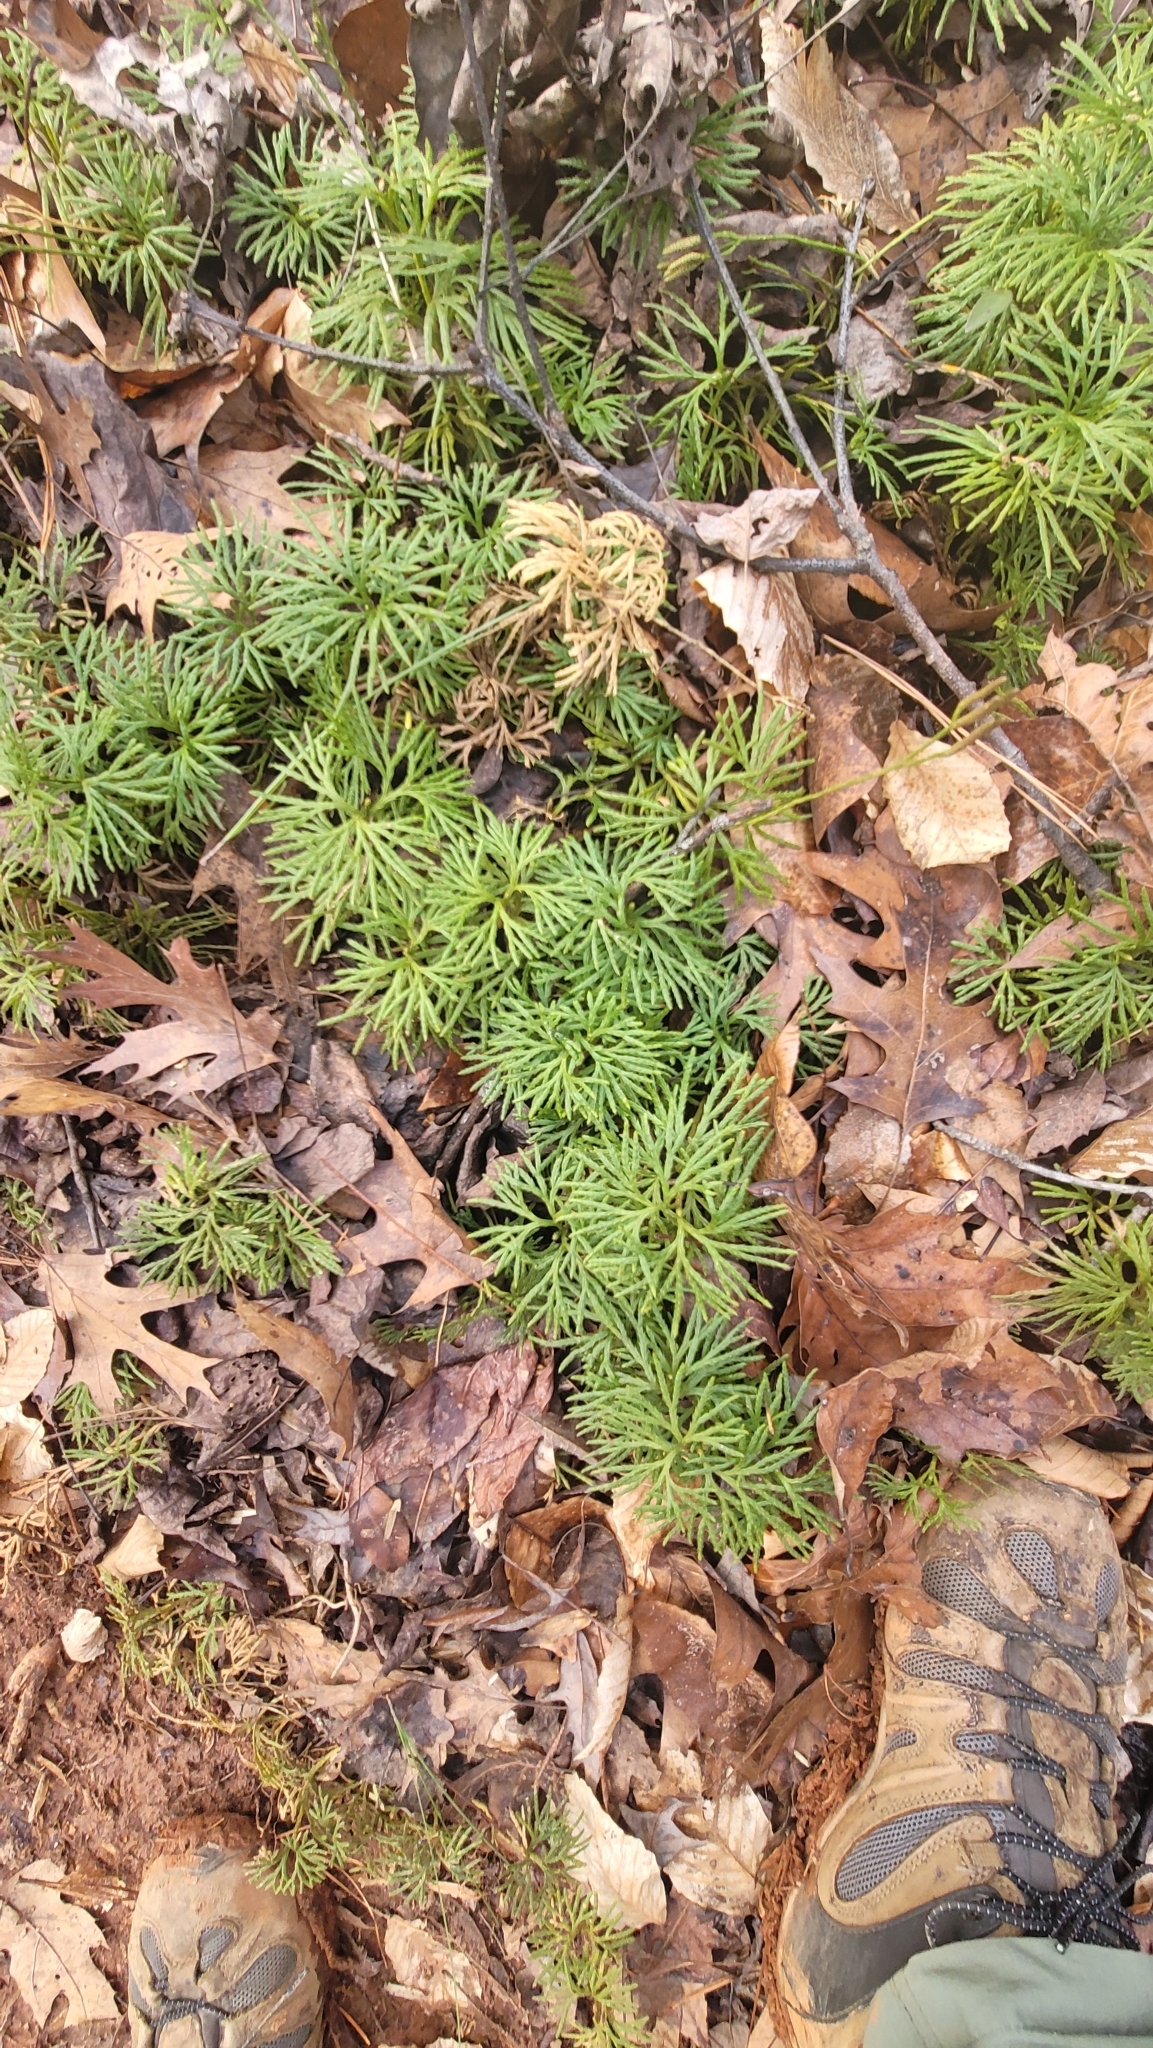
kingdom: Plantae
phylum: Tracheophyta
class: Lycopodiopsida
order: Lycopodiales
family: Lycopodiaceae
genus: Diphasiastrum
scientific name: Diphasiastrum digitatum
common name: Southern running-pine
